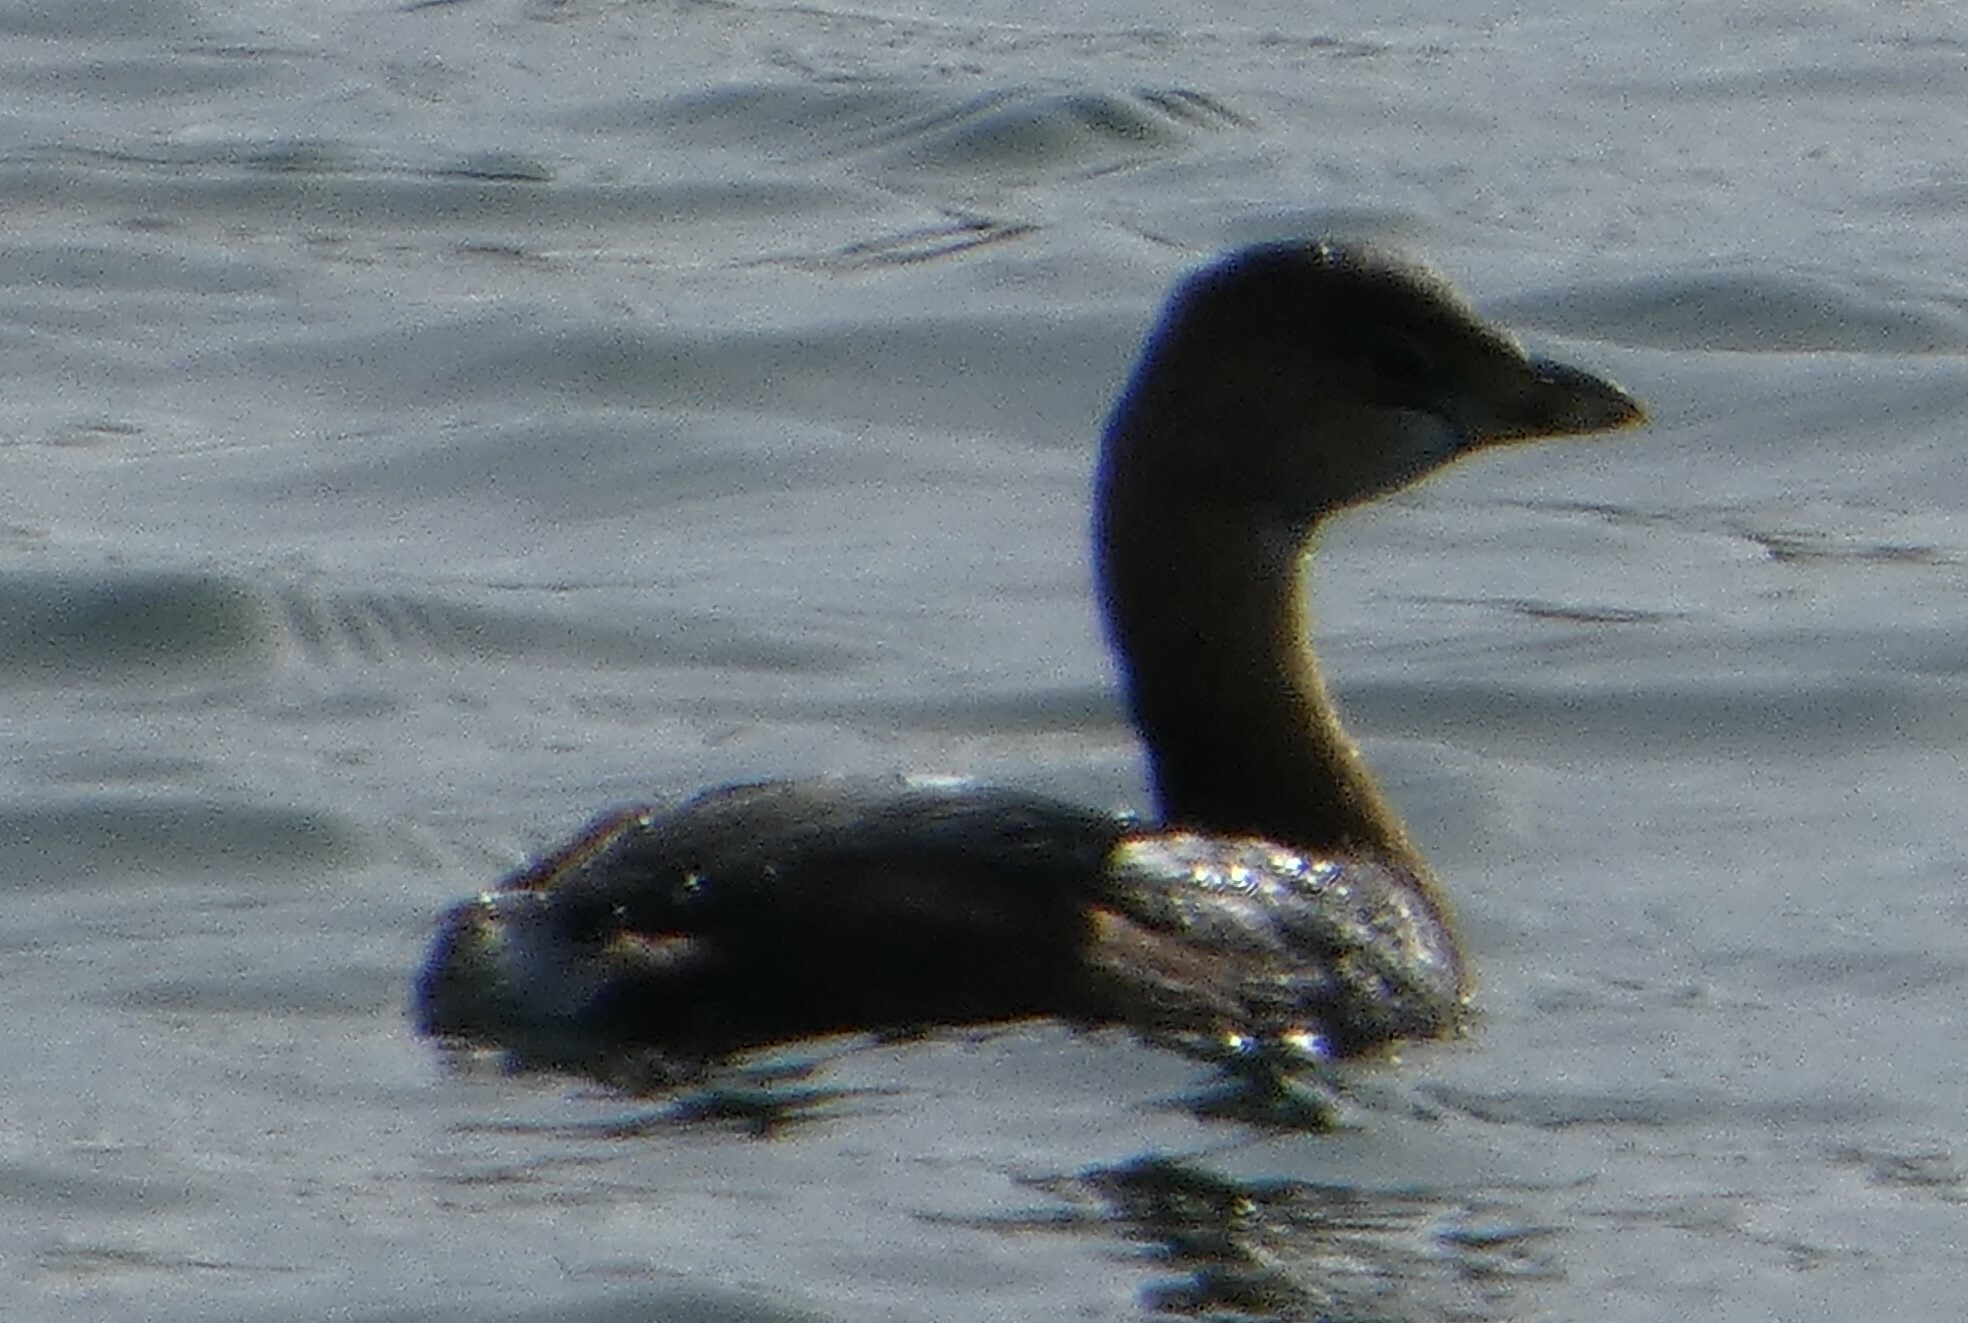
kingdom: Animalia
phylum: Chordata
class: Aves
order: Podicipediformes
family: Podicipedidae
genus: Podilymbus
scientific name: Podilymbus podiceps
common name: Pied-billed grebe
